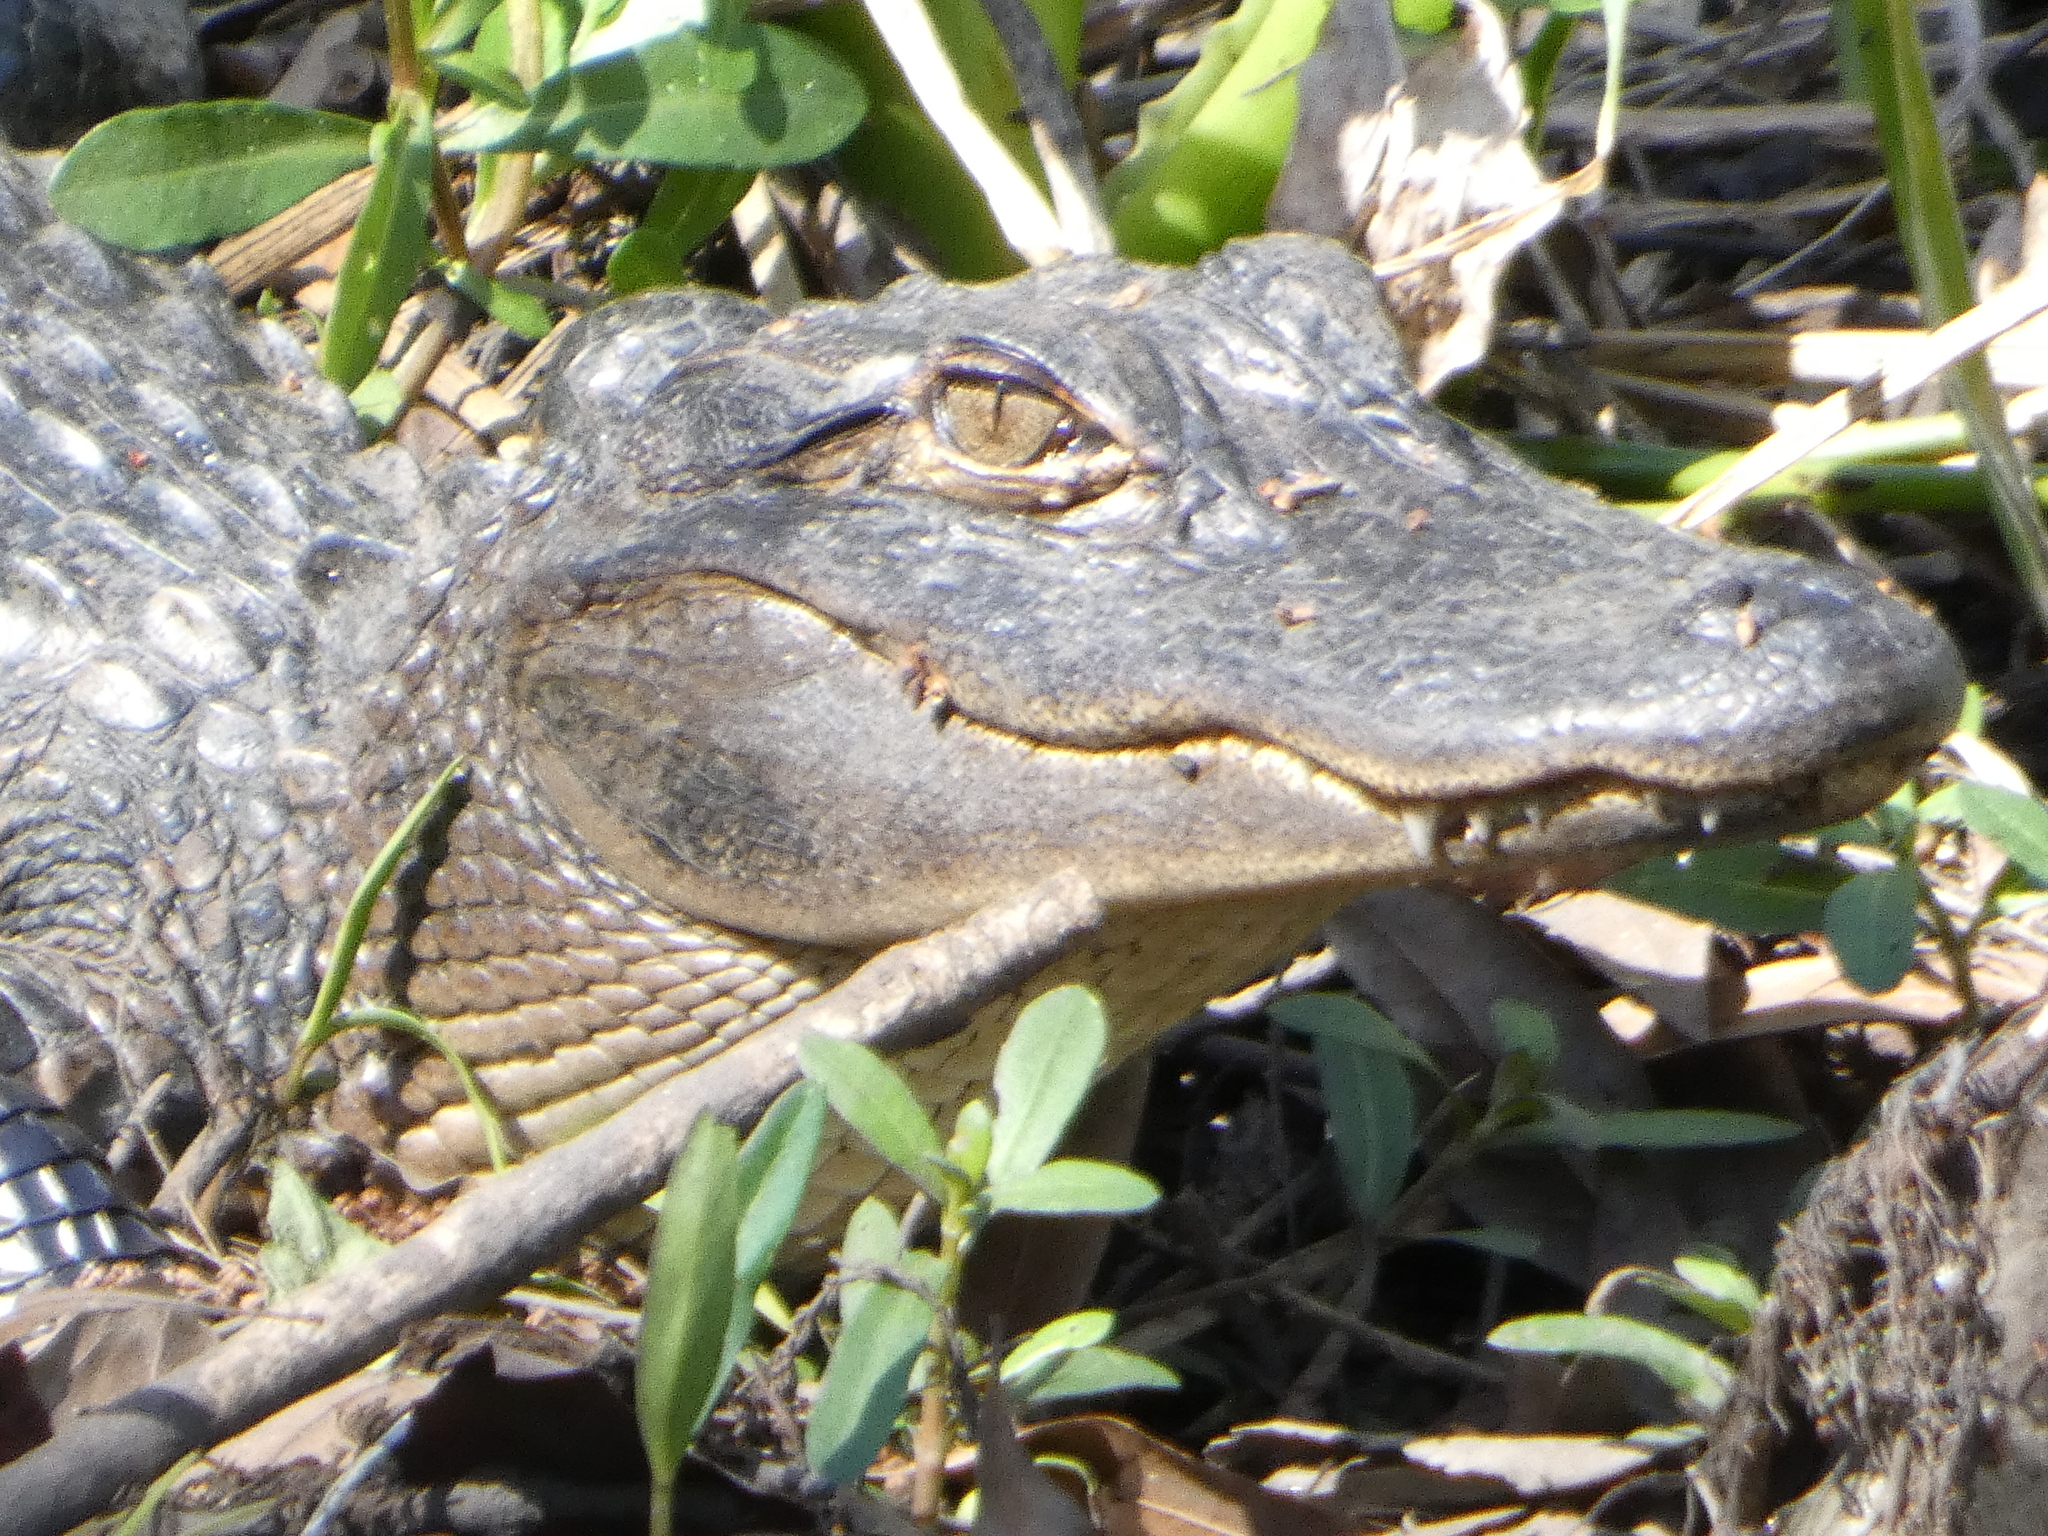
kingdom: Animalia
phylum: Chordata
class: Crocodylia
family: Alligatoridae
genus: Alligator
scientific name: Alligator mississippiensis
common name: American alligator
